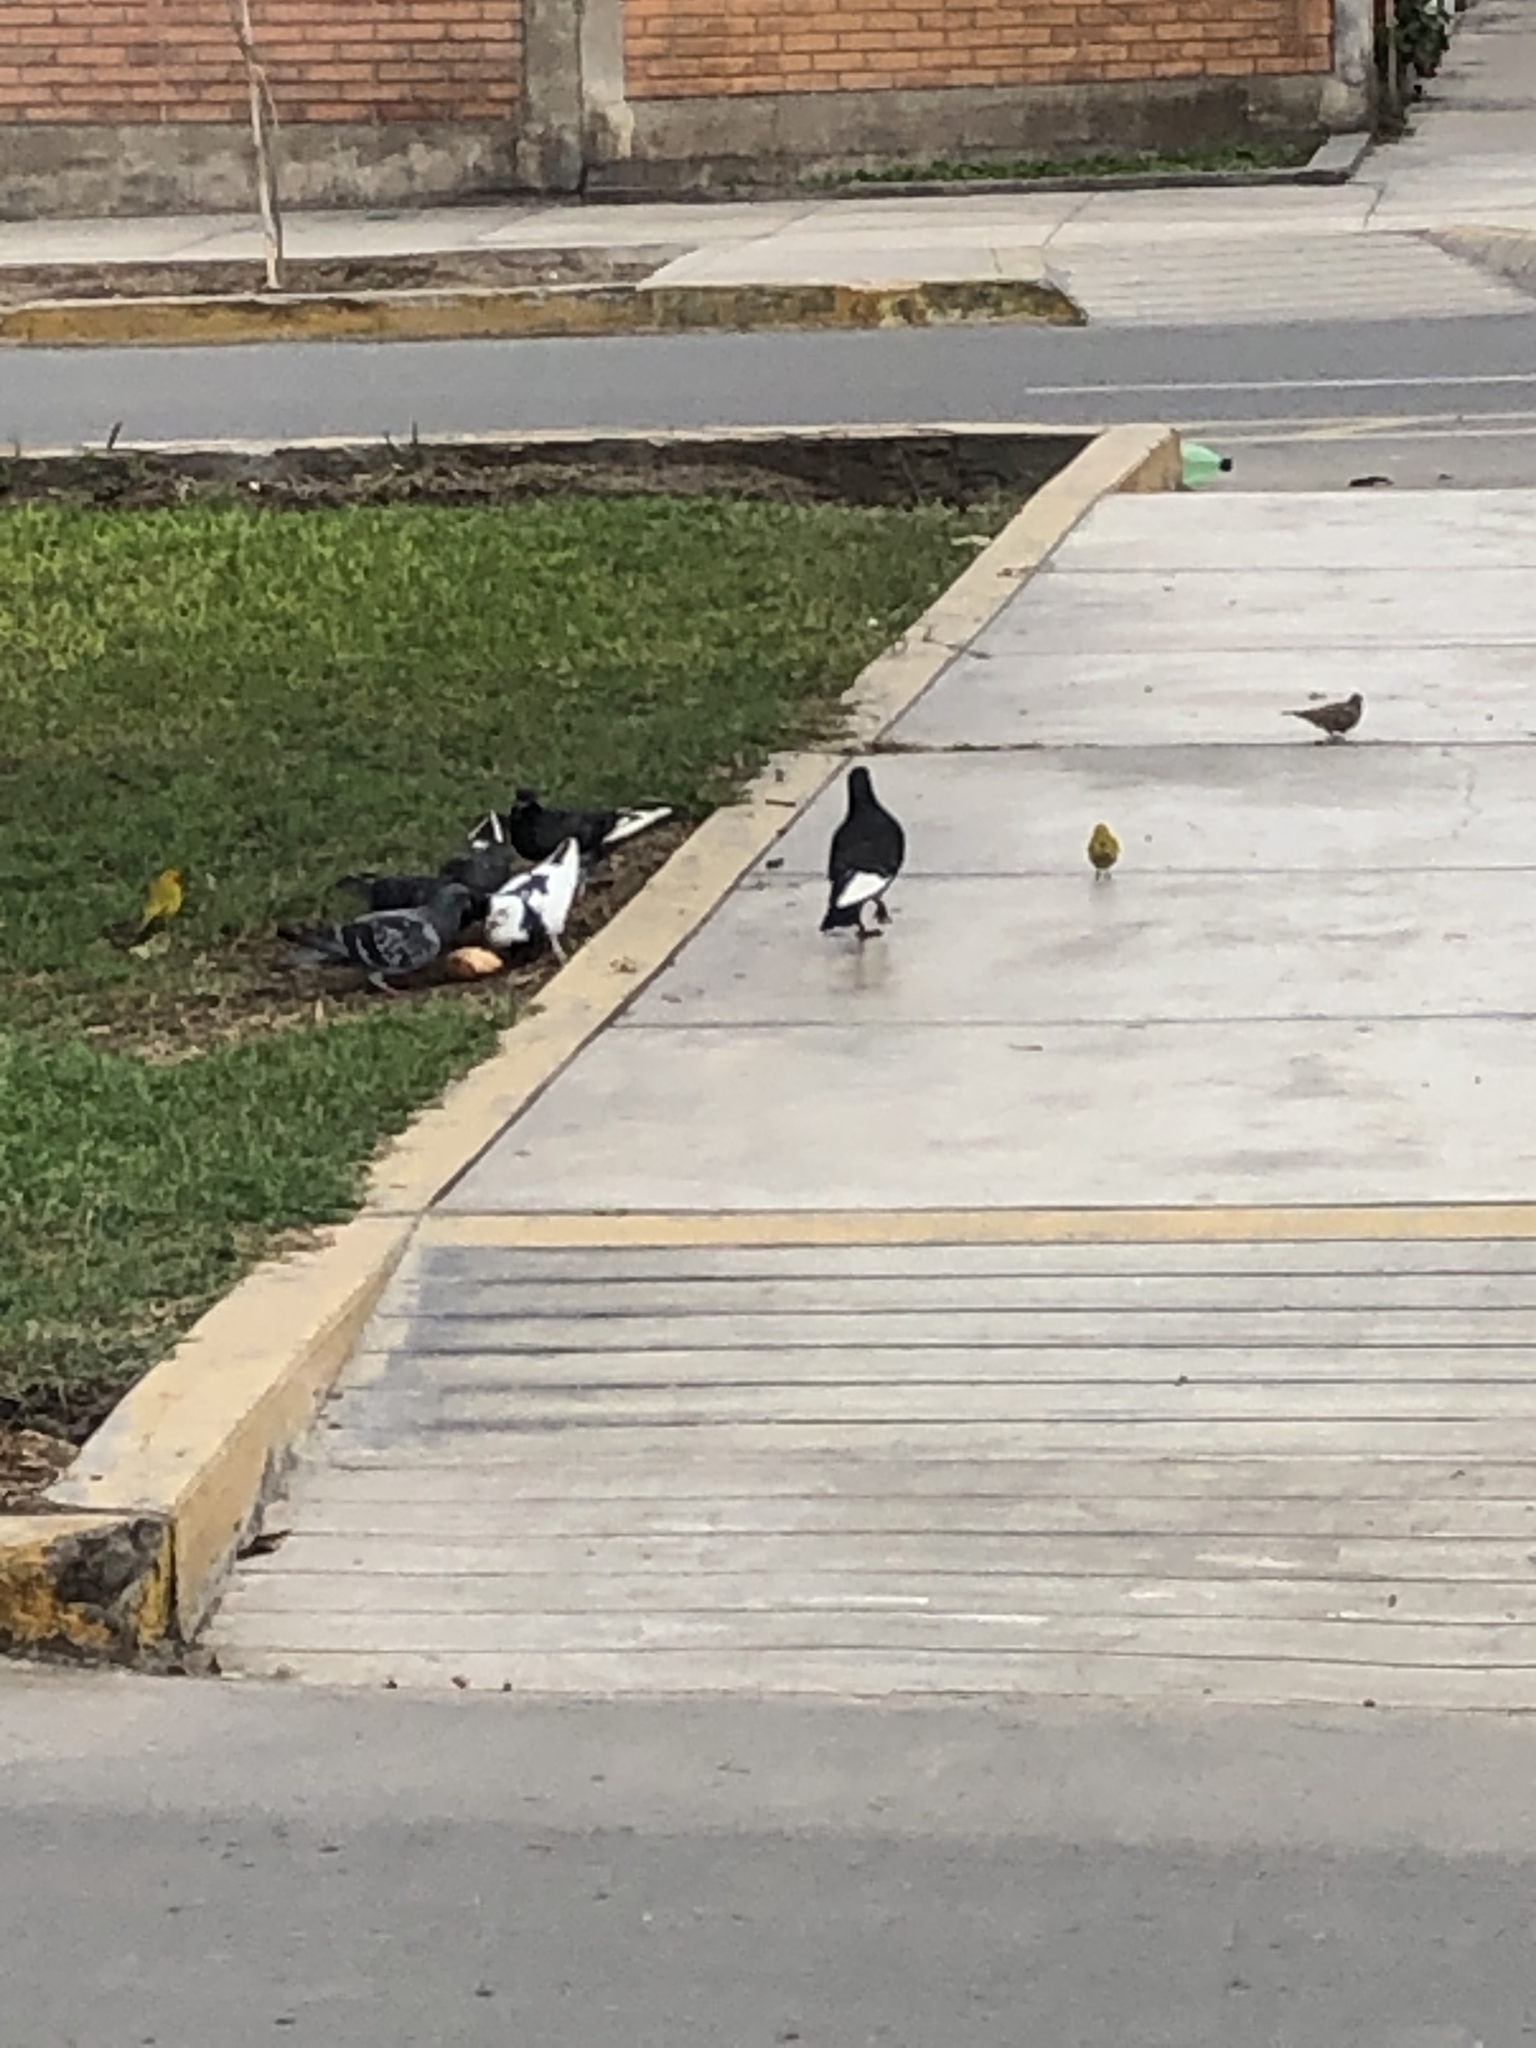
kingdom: Animalia
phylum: Chordata
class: Aves
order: Columbiformes
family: Columbidae
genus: Columbina
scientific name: Columbina cruziana
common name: Croaking ground dove
